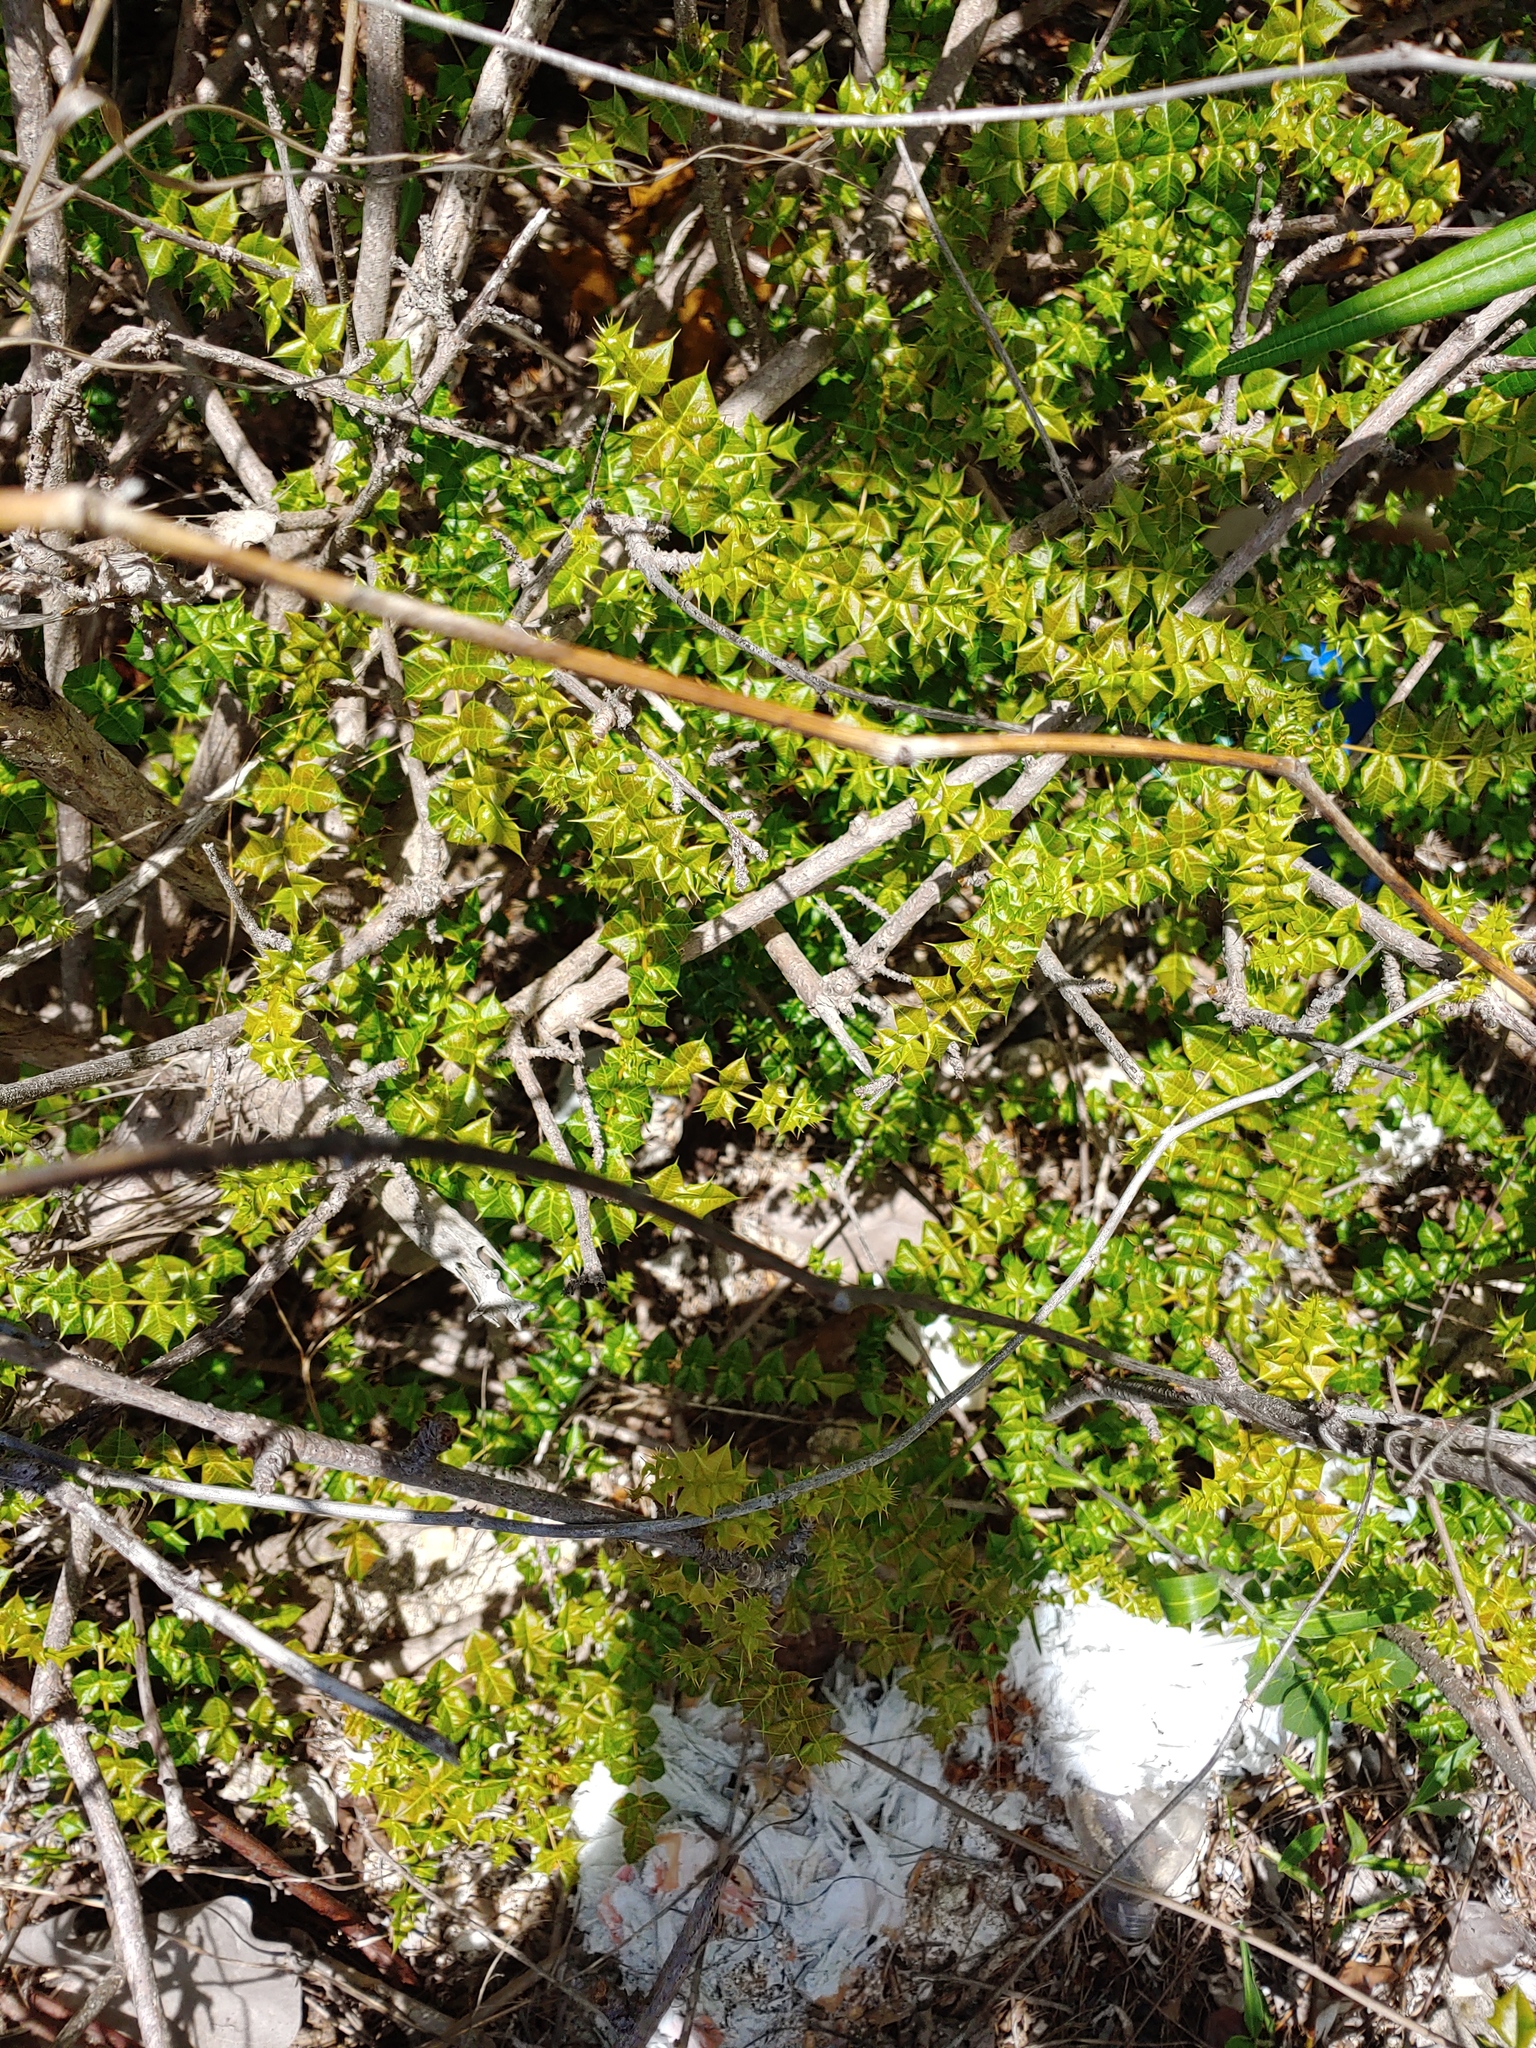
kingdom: Plantae
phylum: Tracheophyta
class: Magnoliopsida
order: Sapindales
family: Anacardiaceae
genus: Comocladia
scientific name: Comocladia dodonaea
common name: Poison ash
